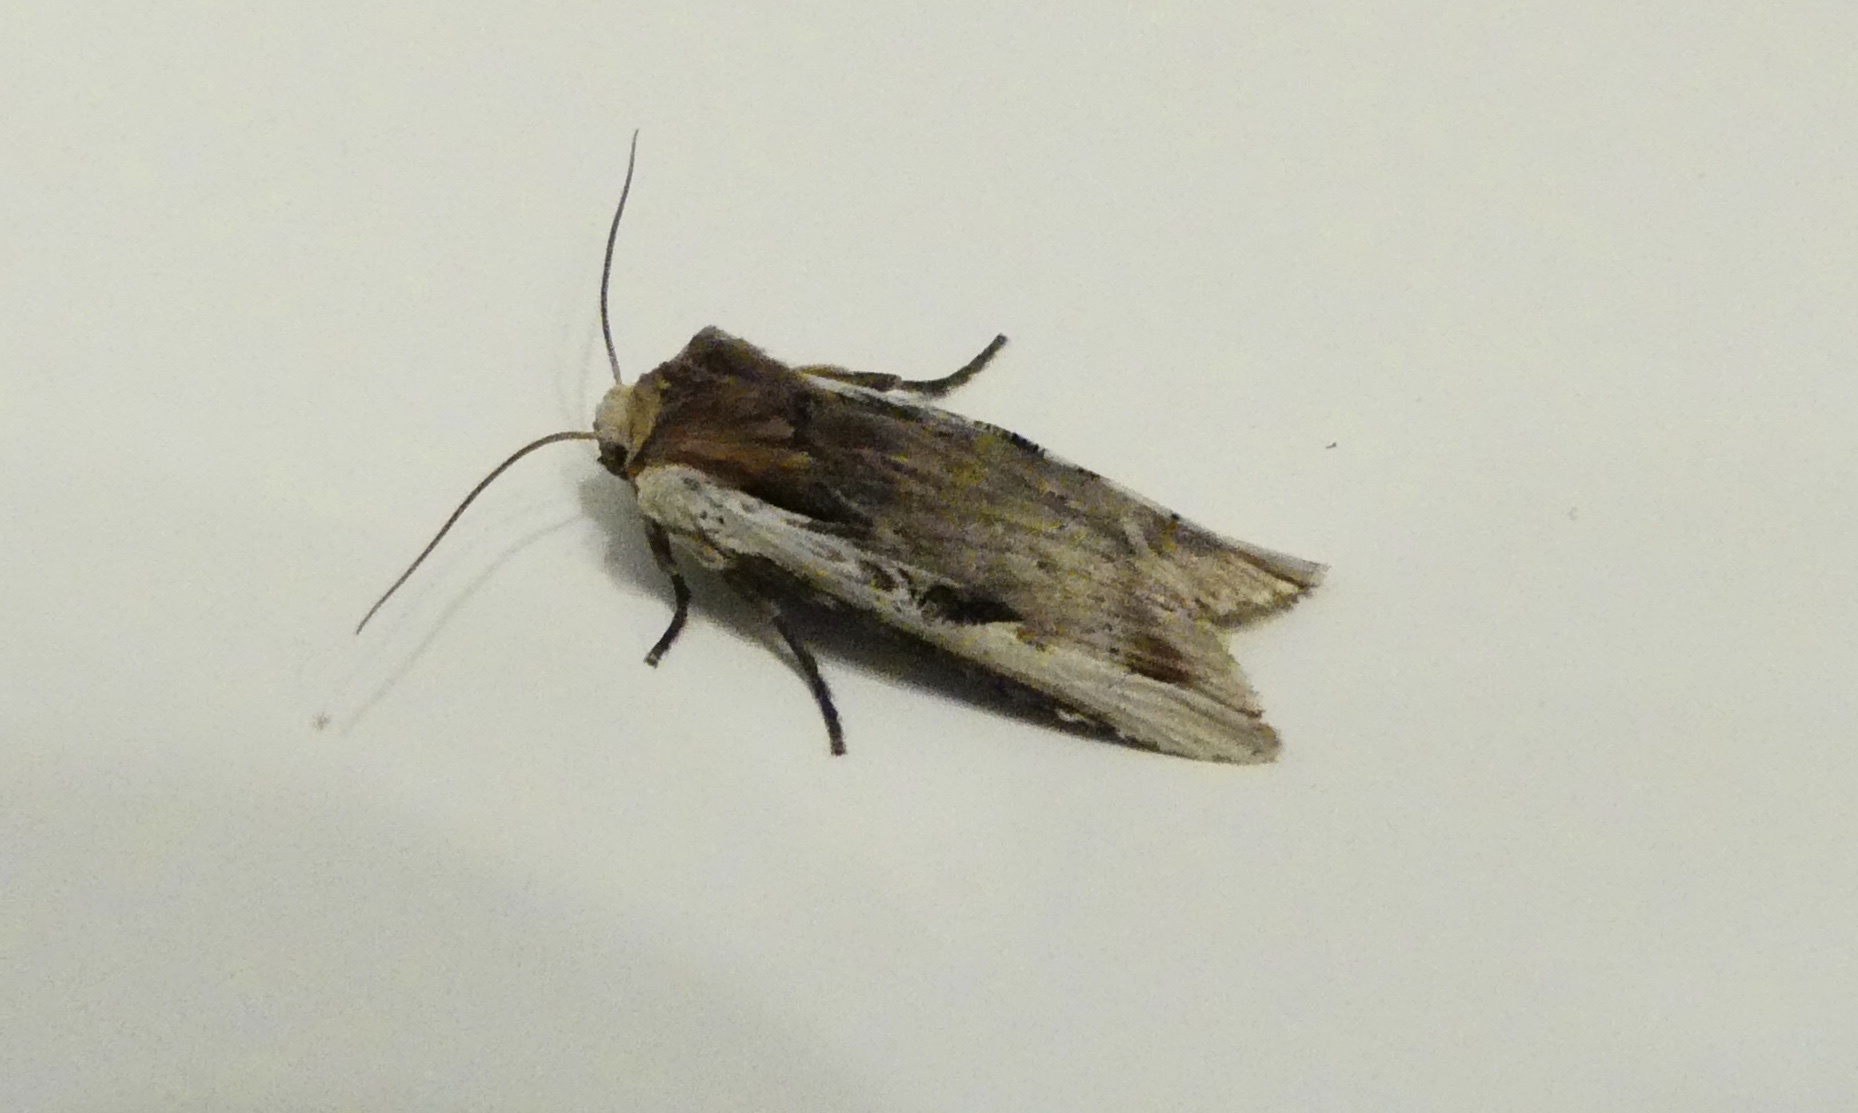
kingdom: Animalia
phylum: Arthropoda
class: Insecta
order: Lepidoptera
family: Noctuidae
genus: Xylena
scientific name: Xylena curvimacula
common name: Dot-and-dash swordgrass moth
